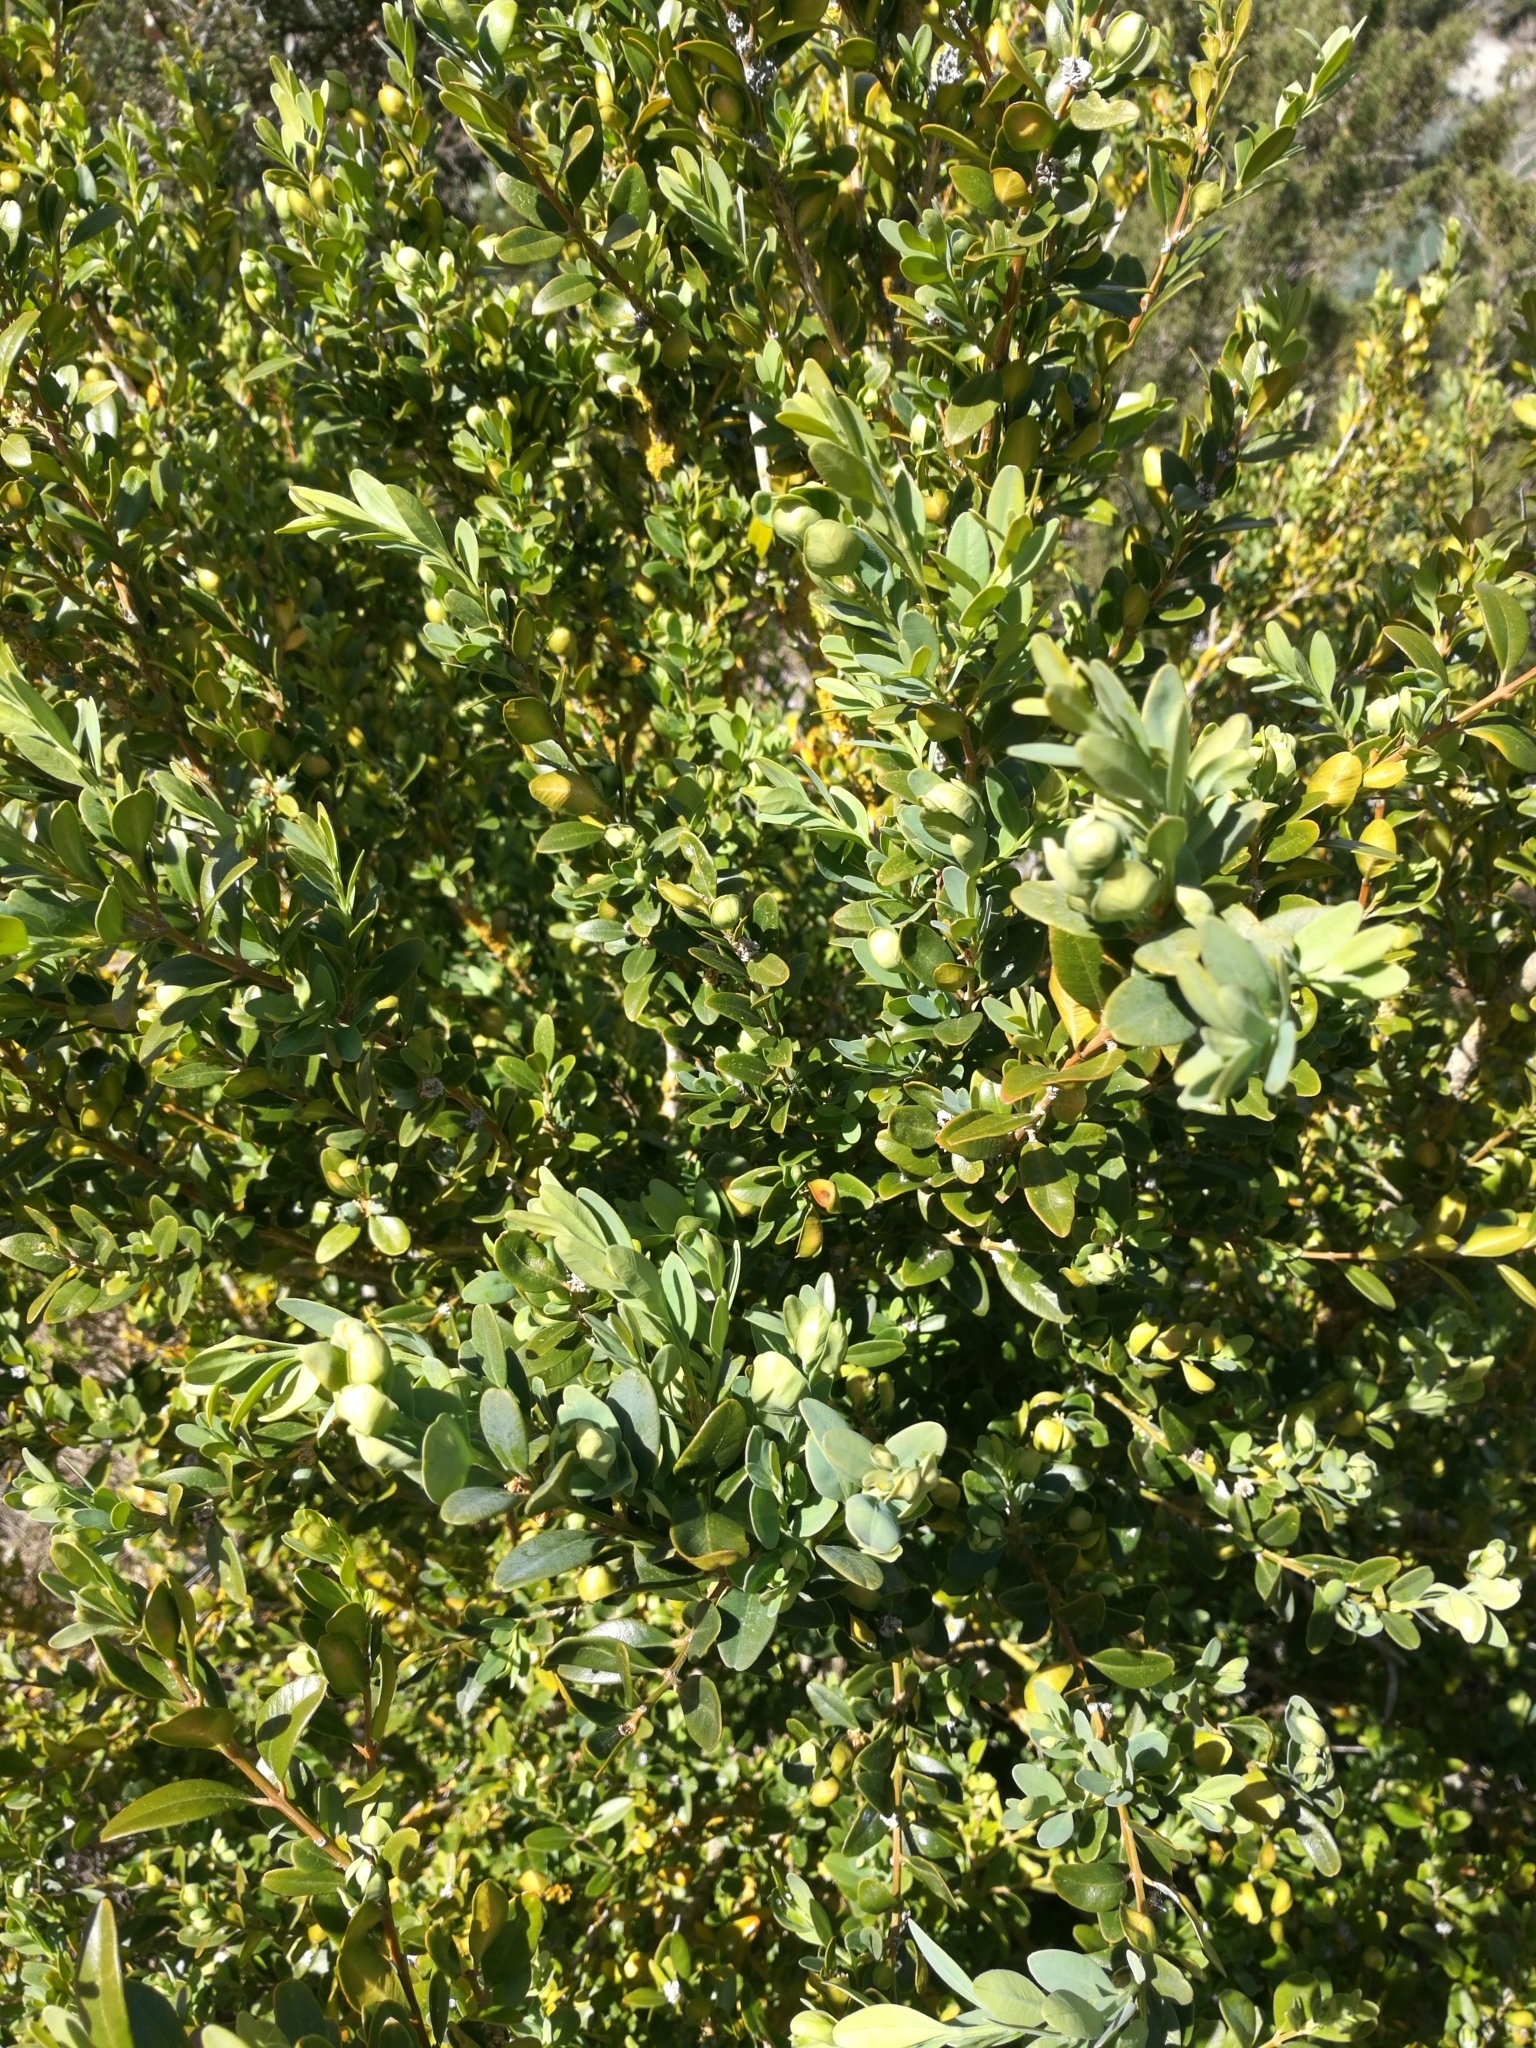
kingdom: Plantae
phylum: Tracheophyta
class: Magnoliopsida
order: Buxales
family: Buxaceae
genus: Buxus
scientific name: Buxus sempervirens
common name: Box
